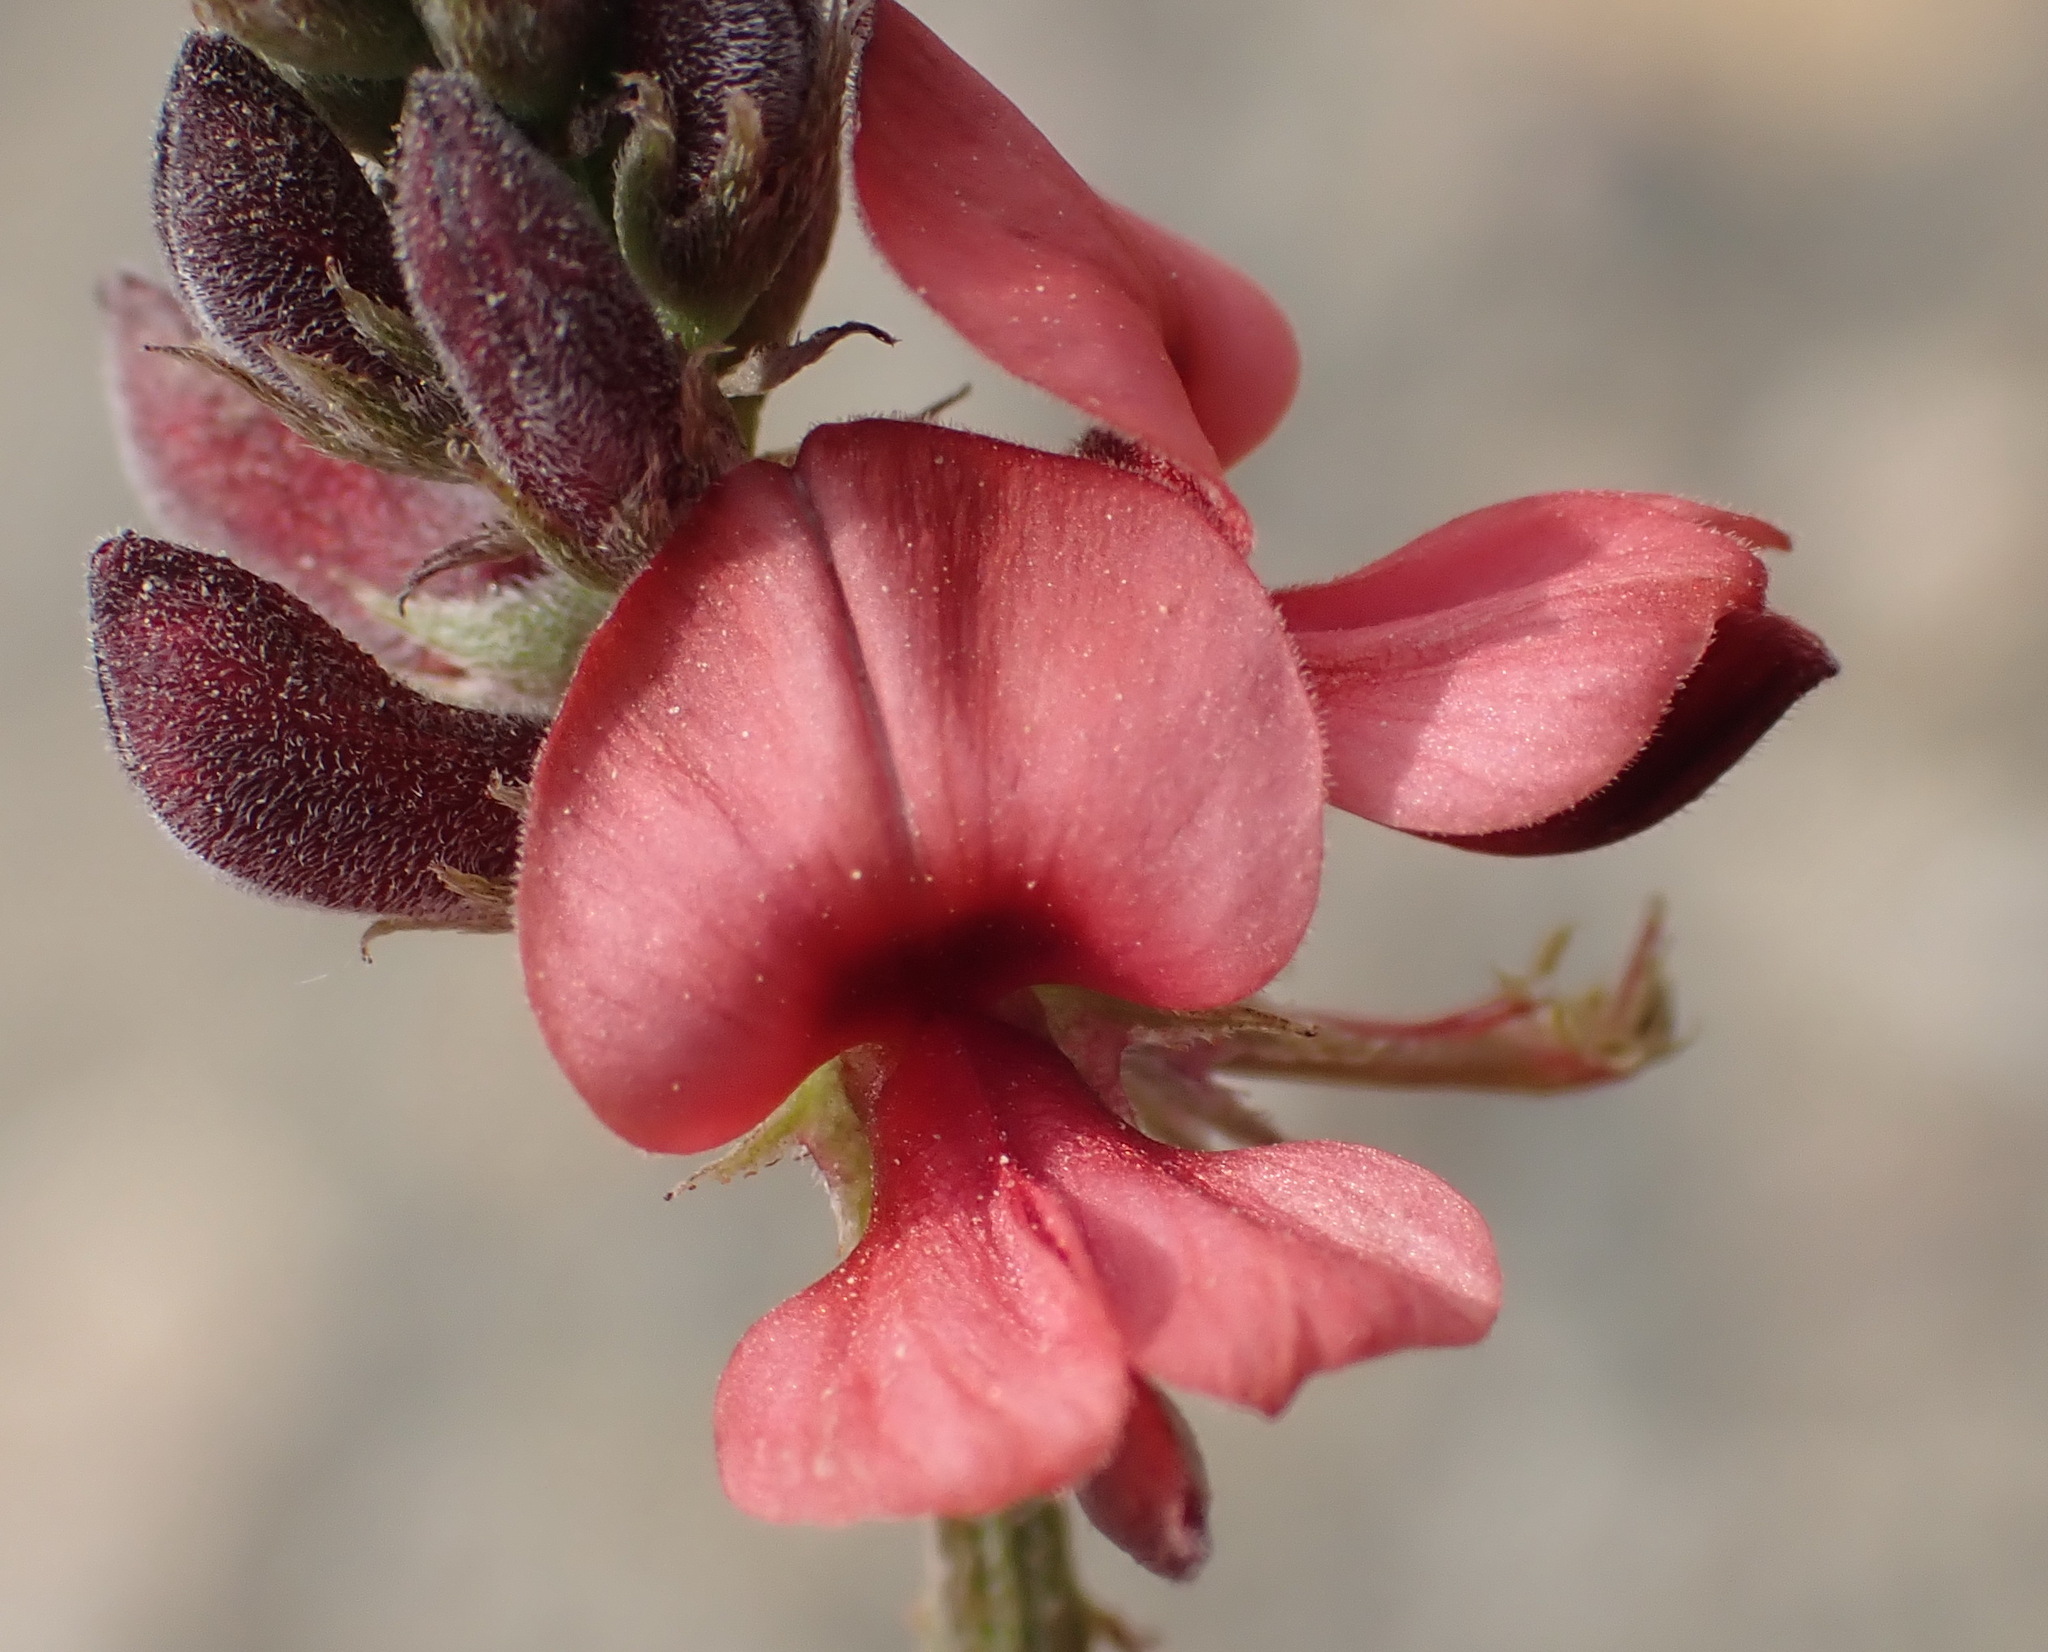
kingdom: Plantae
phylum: Tracheophyta
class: Magnoliopsida
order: Fabales
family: Fabaceae
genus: Indigofera
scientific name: Indigofera heterophylla
